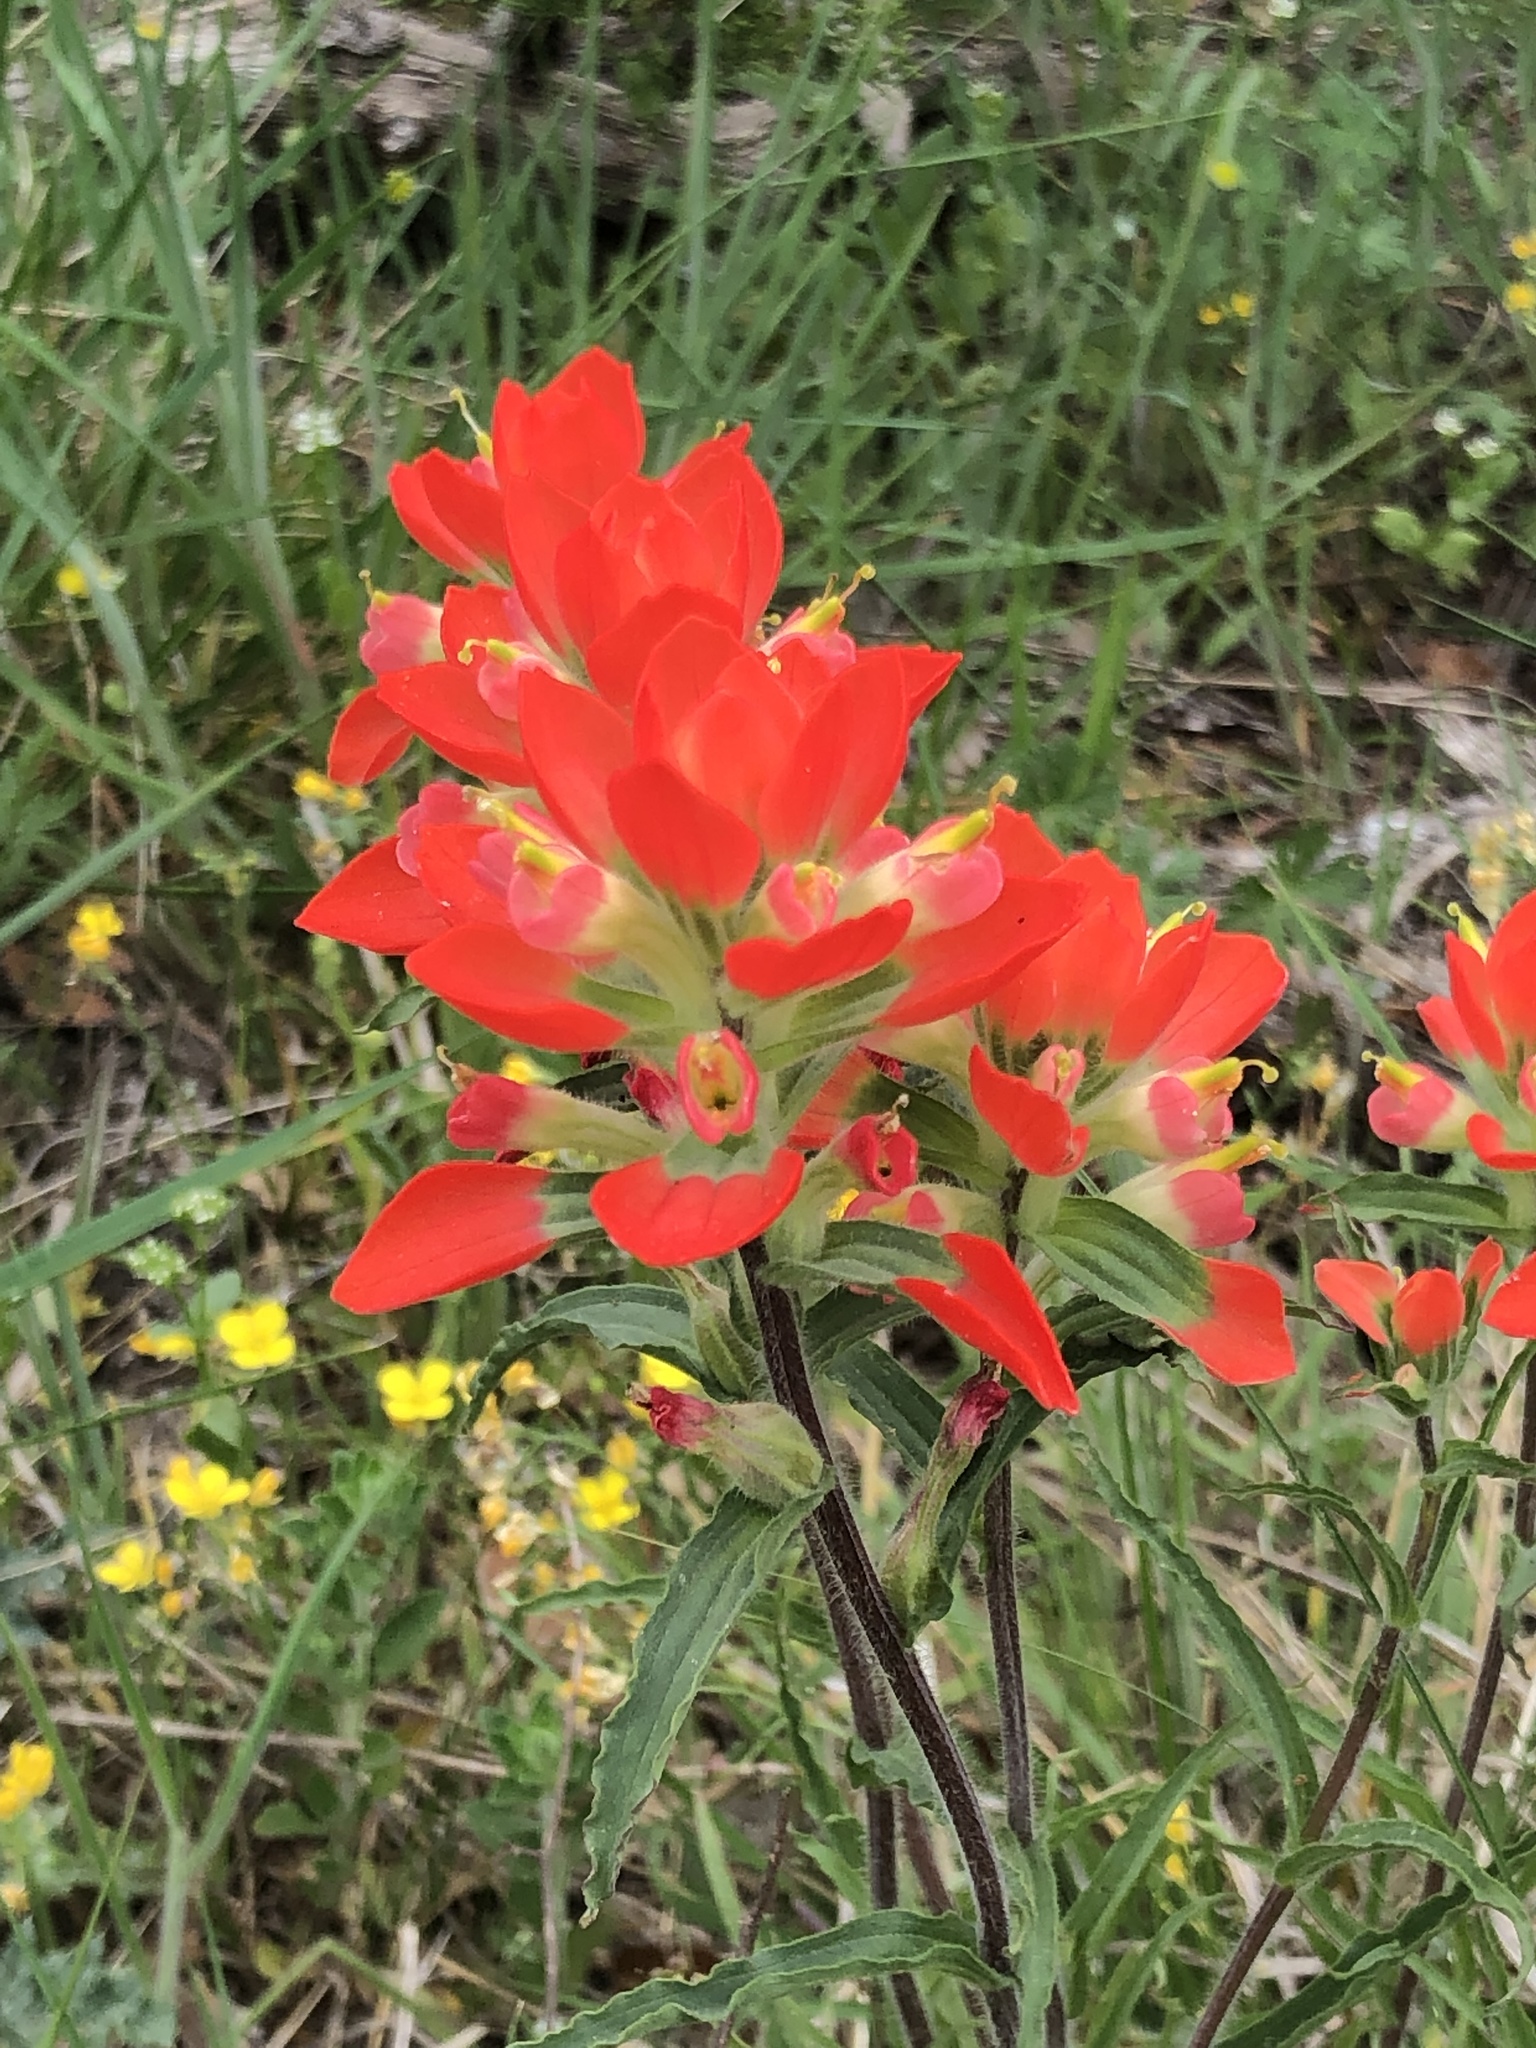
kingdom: Plantae
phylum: Tracheophyta
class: Magnoliopsida
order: Lamiales
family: Orobanchaceae
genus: Castilleja
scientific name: Castilleja indivisa
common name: Texas paintbrush
